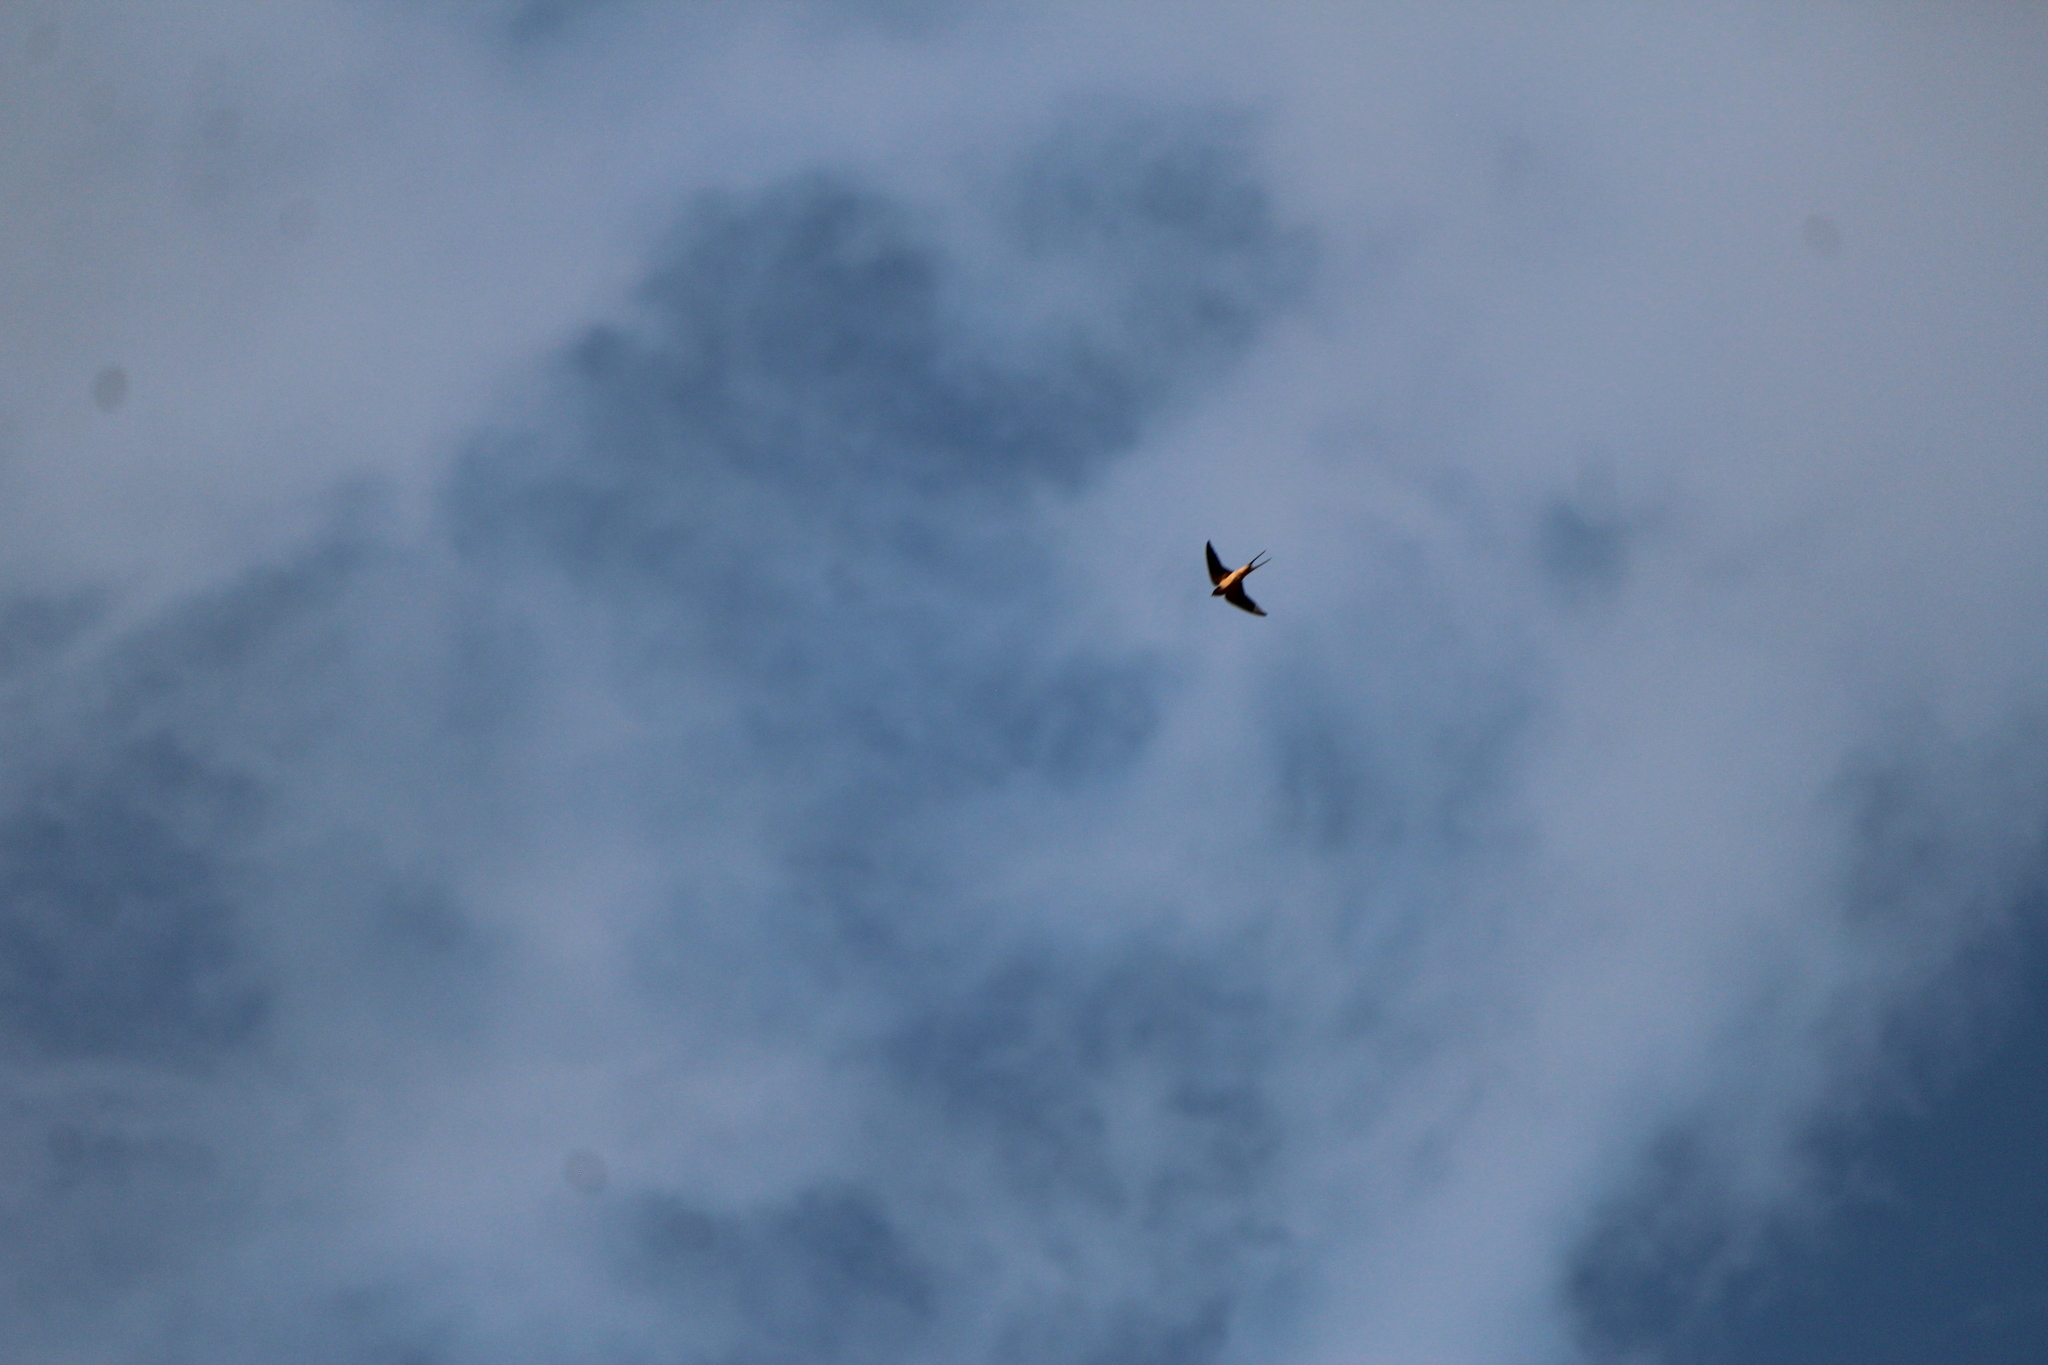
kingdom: Animalia
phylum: Chordata
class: Aves
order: Passeriformes
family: Hirundinidae
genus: Hirundo
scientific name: Hirundo rustica
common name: Barn swallow
